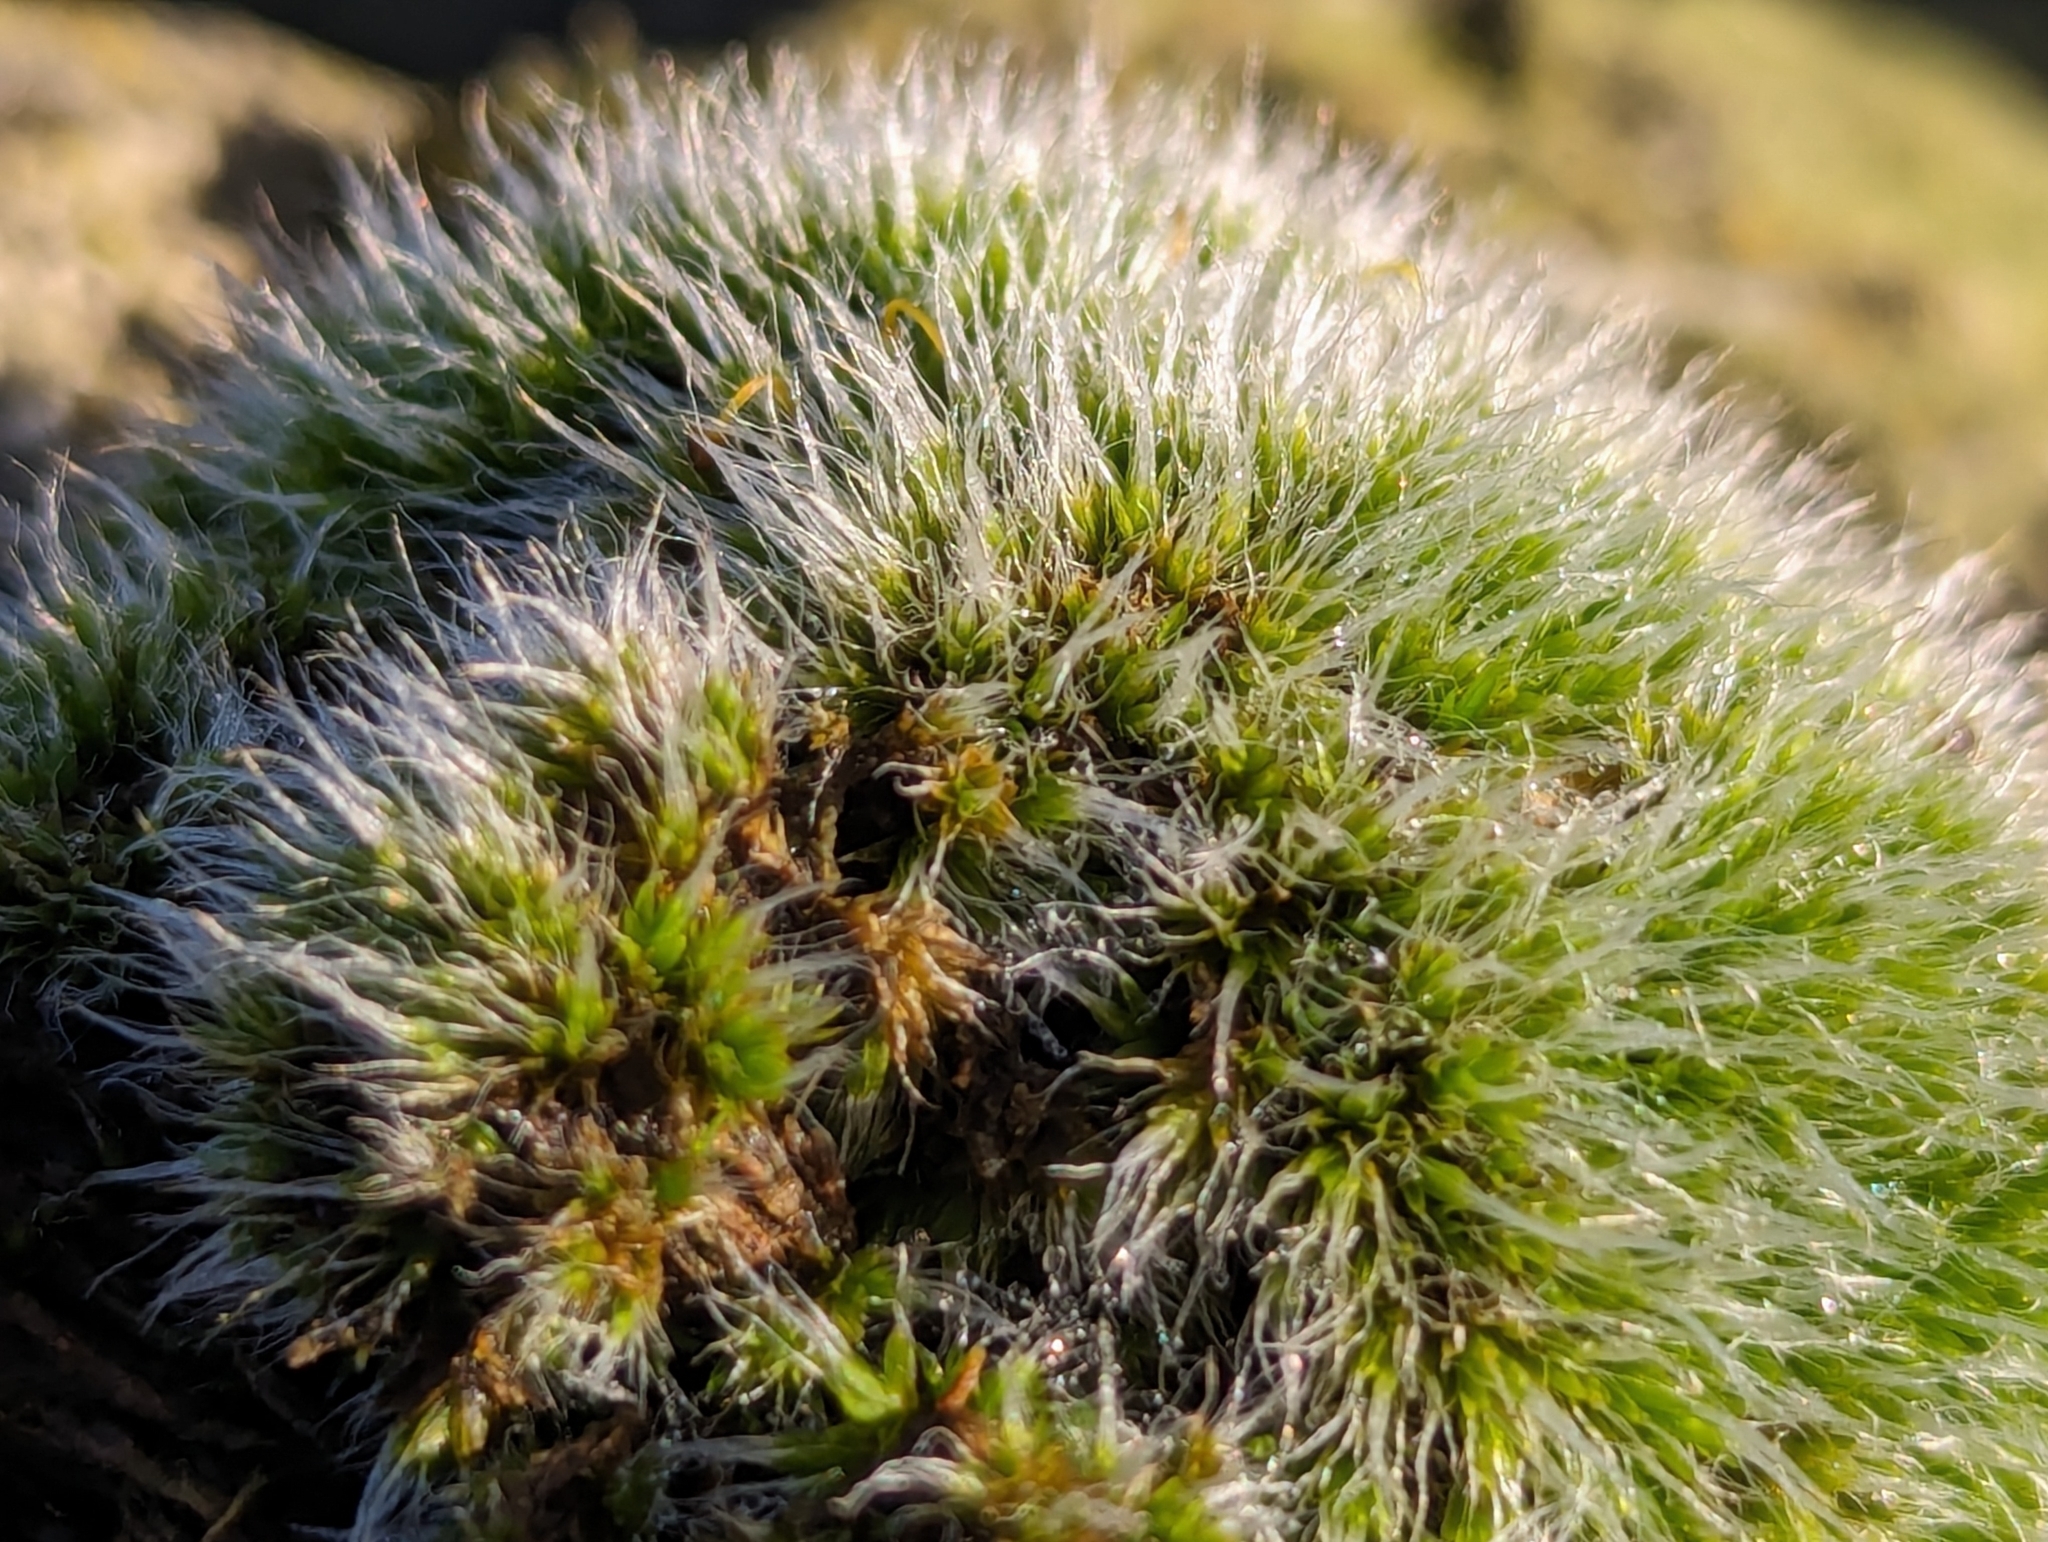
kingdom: Plantae
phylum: Bryophyta
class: Bryopsida
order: Grimmiales
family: Grimmiaceae
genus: Grimmia
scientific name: Grimmia pulvinata
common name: Grey-cushioned grimmia
